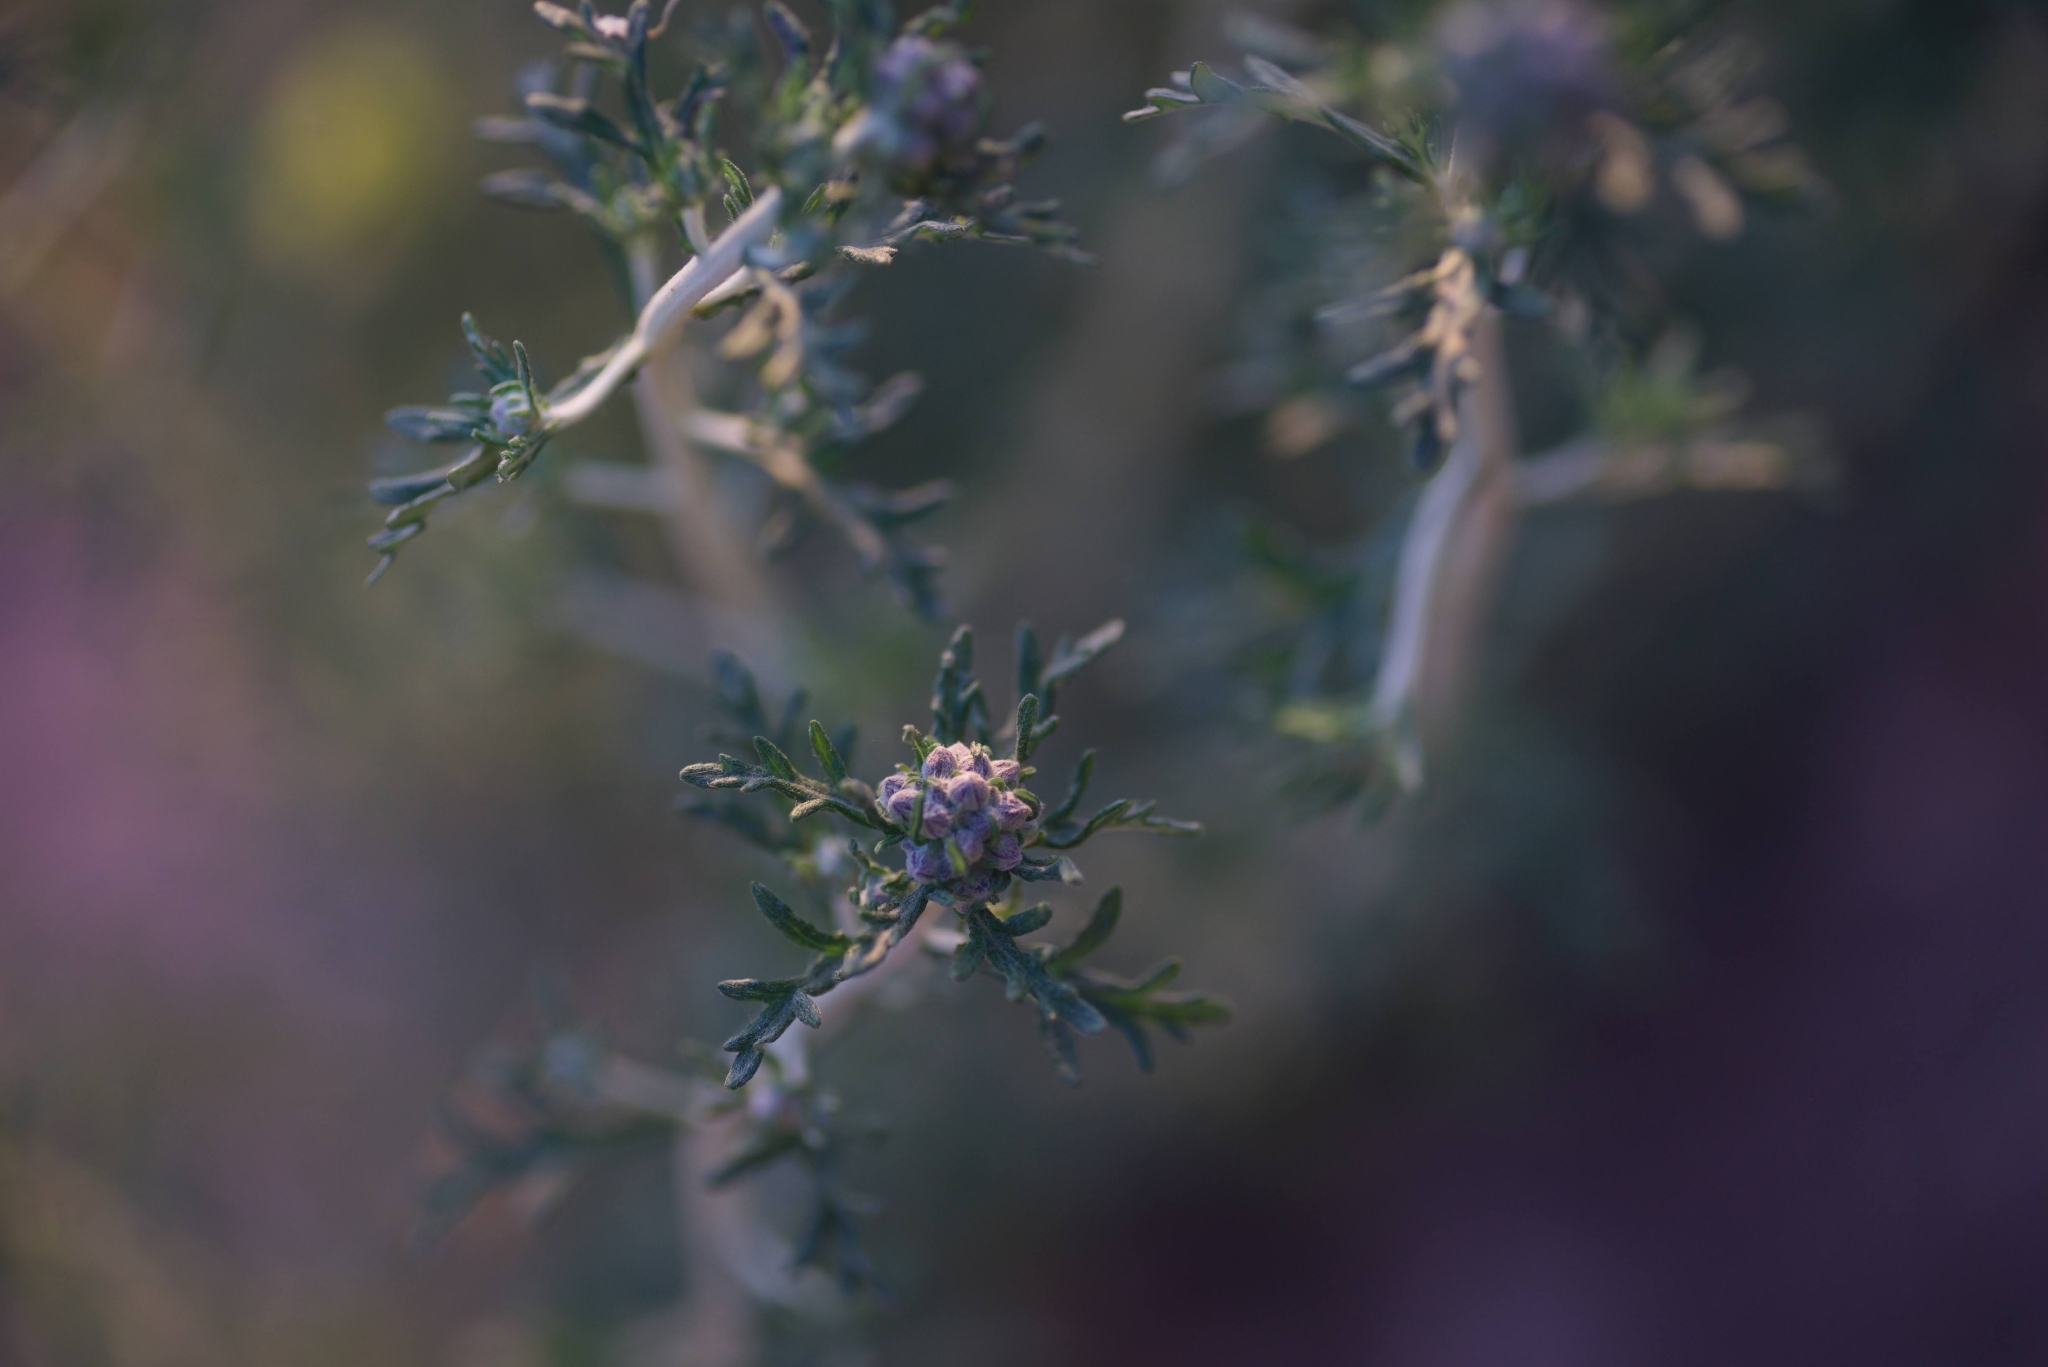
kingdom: Plantae
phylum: Tracheophyta
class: Magnoliopsida
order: Asterales
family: Asteraceae
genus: Eriophyllum
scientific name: Eriophyllum confertiflorum
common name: Golden-yarrow
